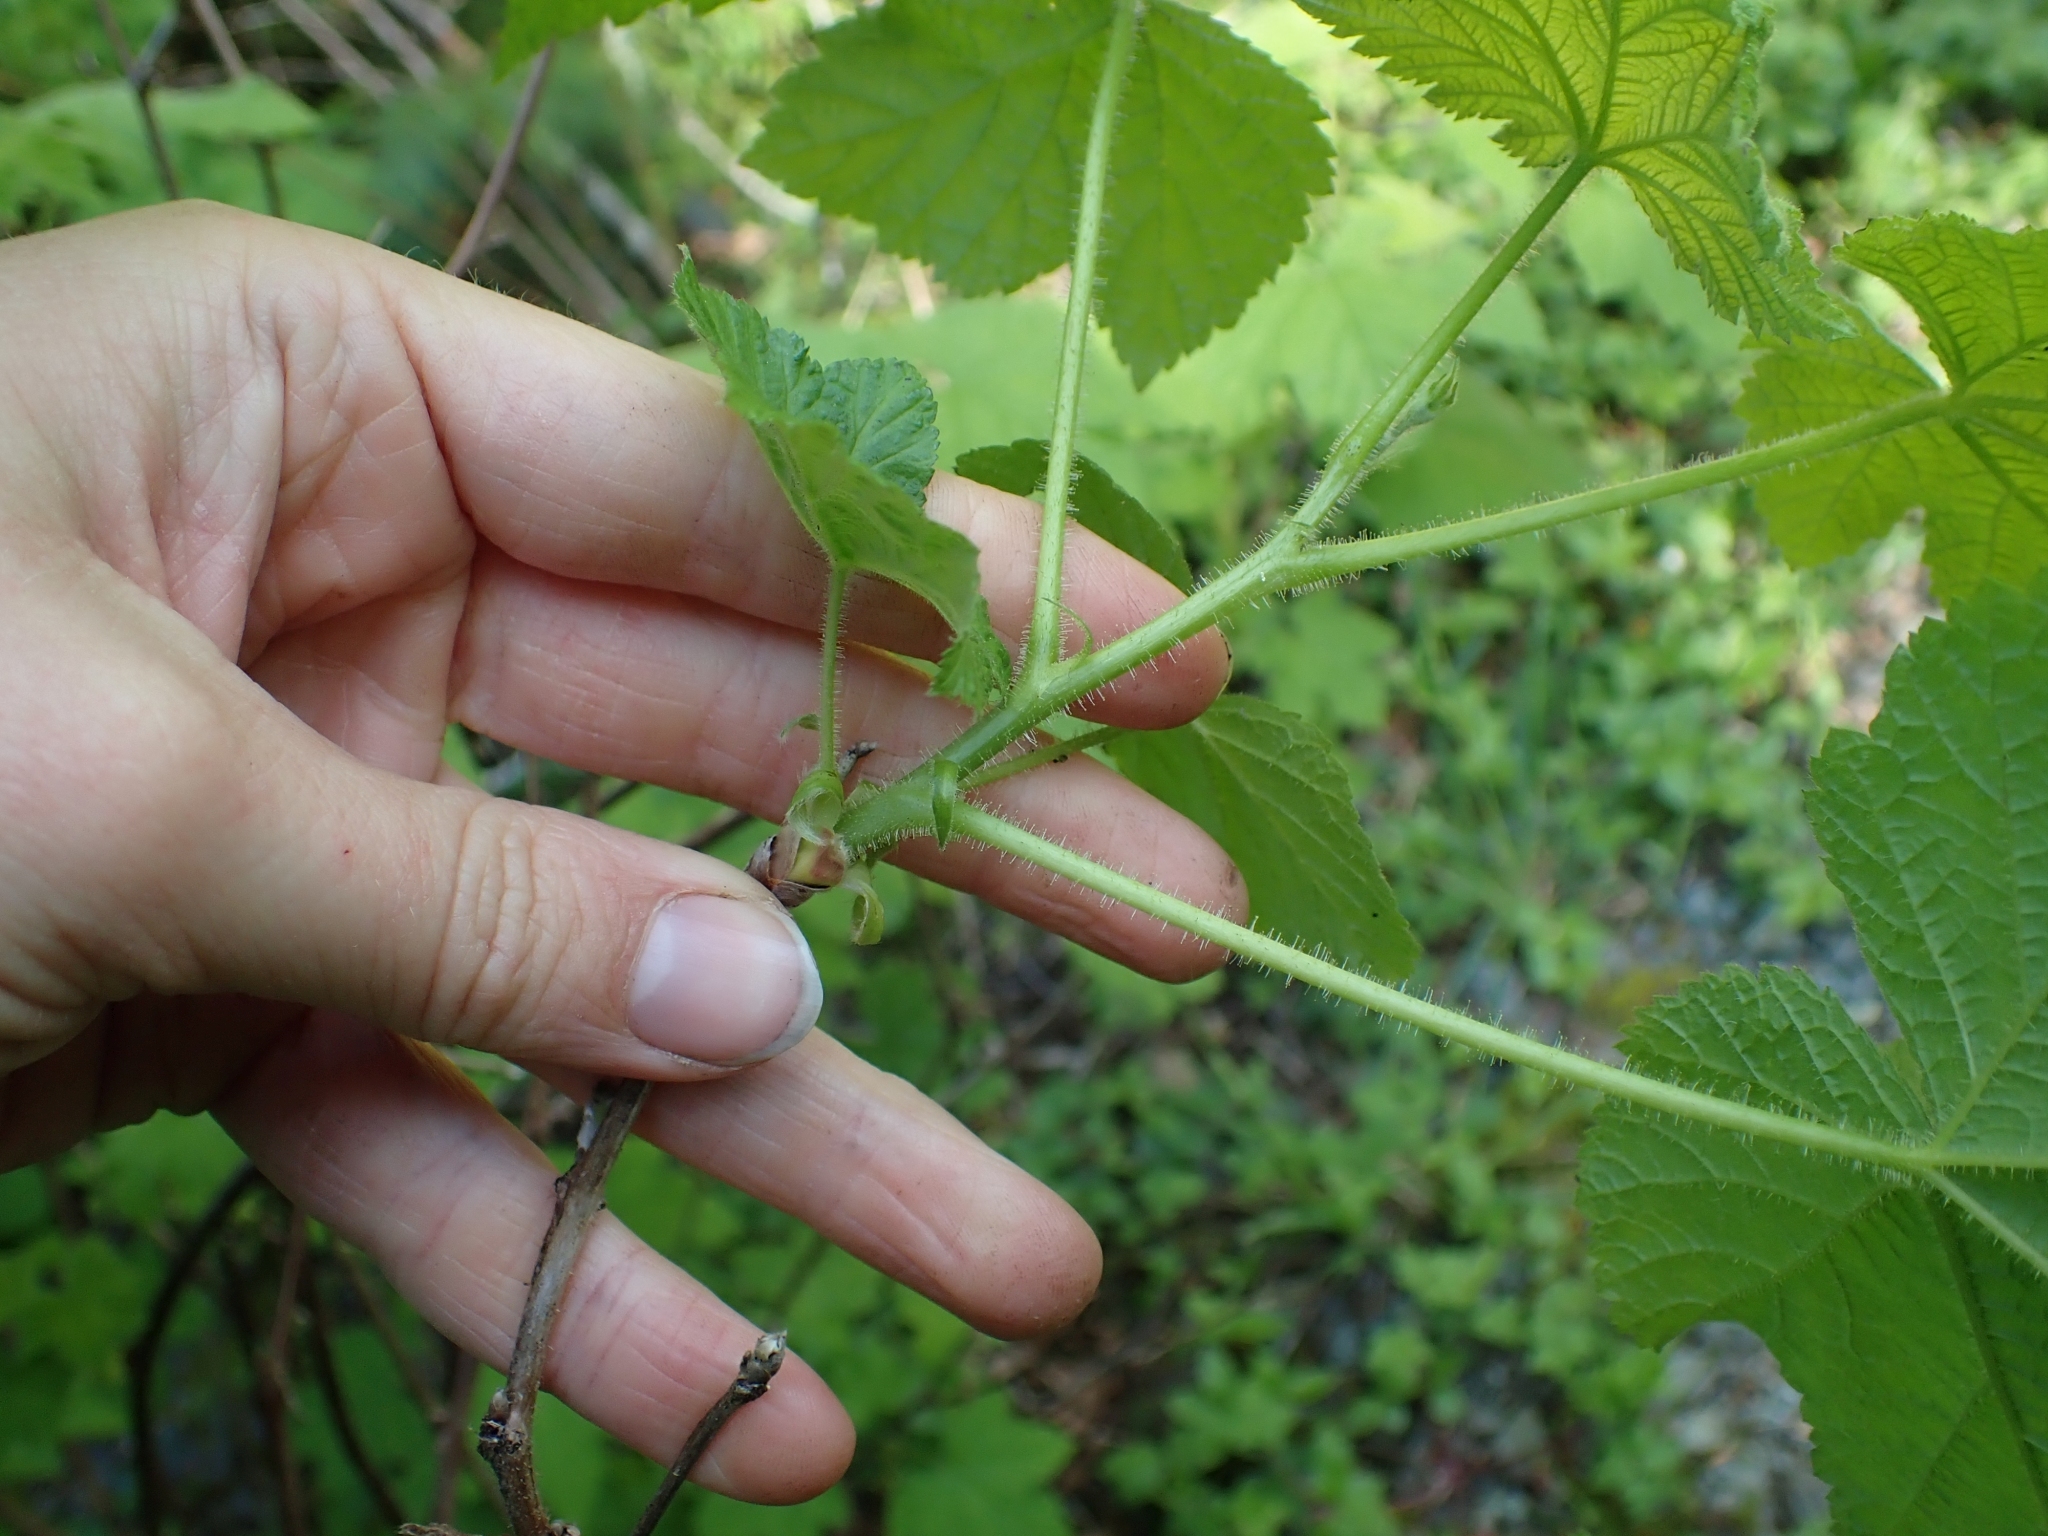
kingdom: Plantae
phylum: Tracheophyta
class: Magnoliopsida
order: Rosales
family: Rosaceae
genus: Rubus
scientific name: Rubus parviflorus
